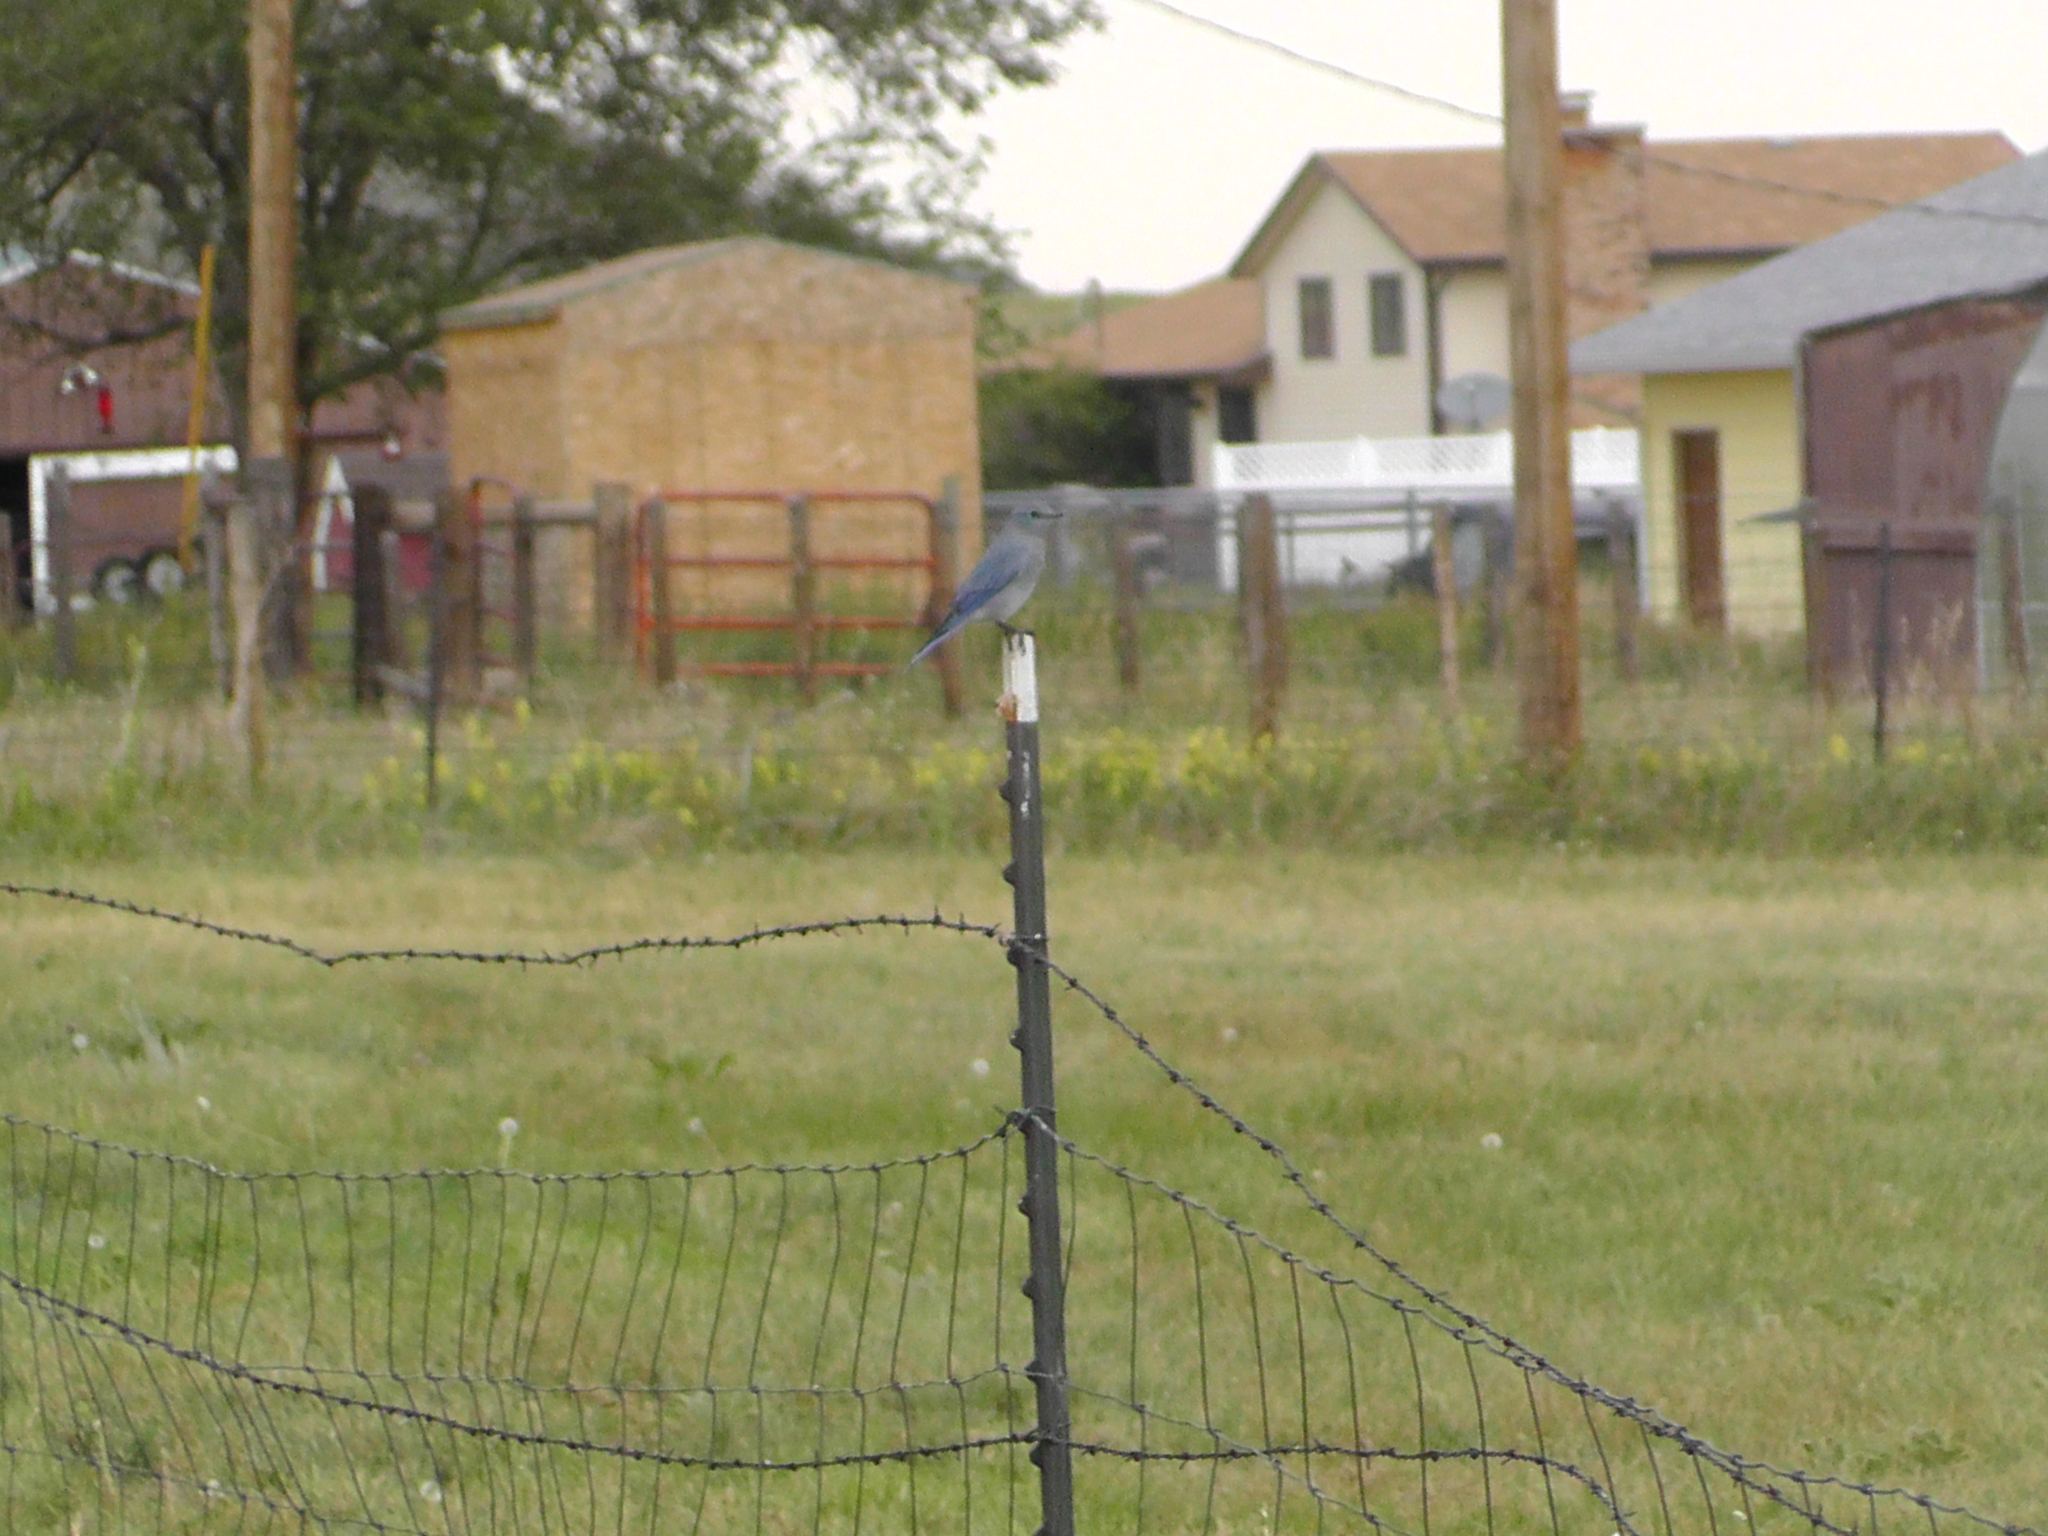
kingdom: Animalia
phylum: Chordata
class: Aves
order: Passeriformes
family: Turdidae
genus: Sialia
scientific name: Sialia currucoides
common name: Mountain bluebird
